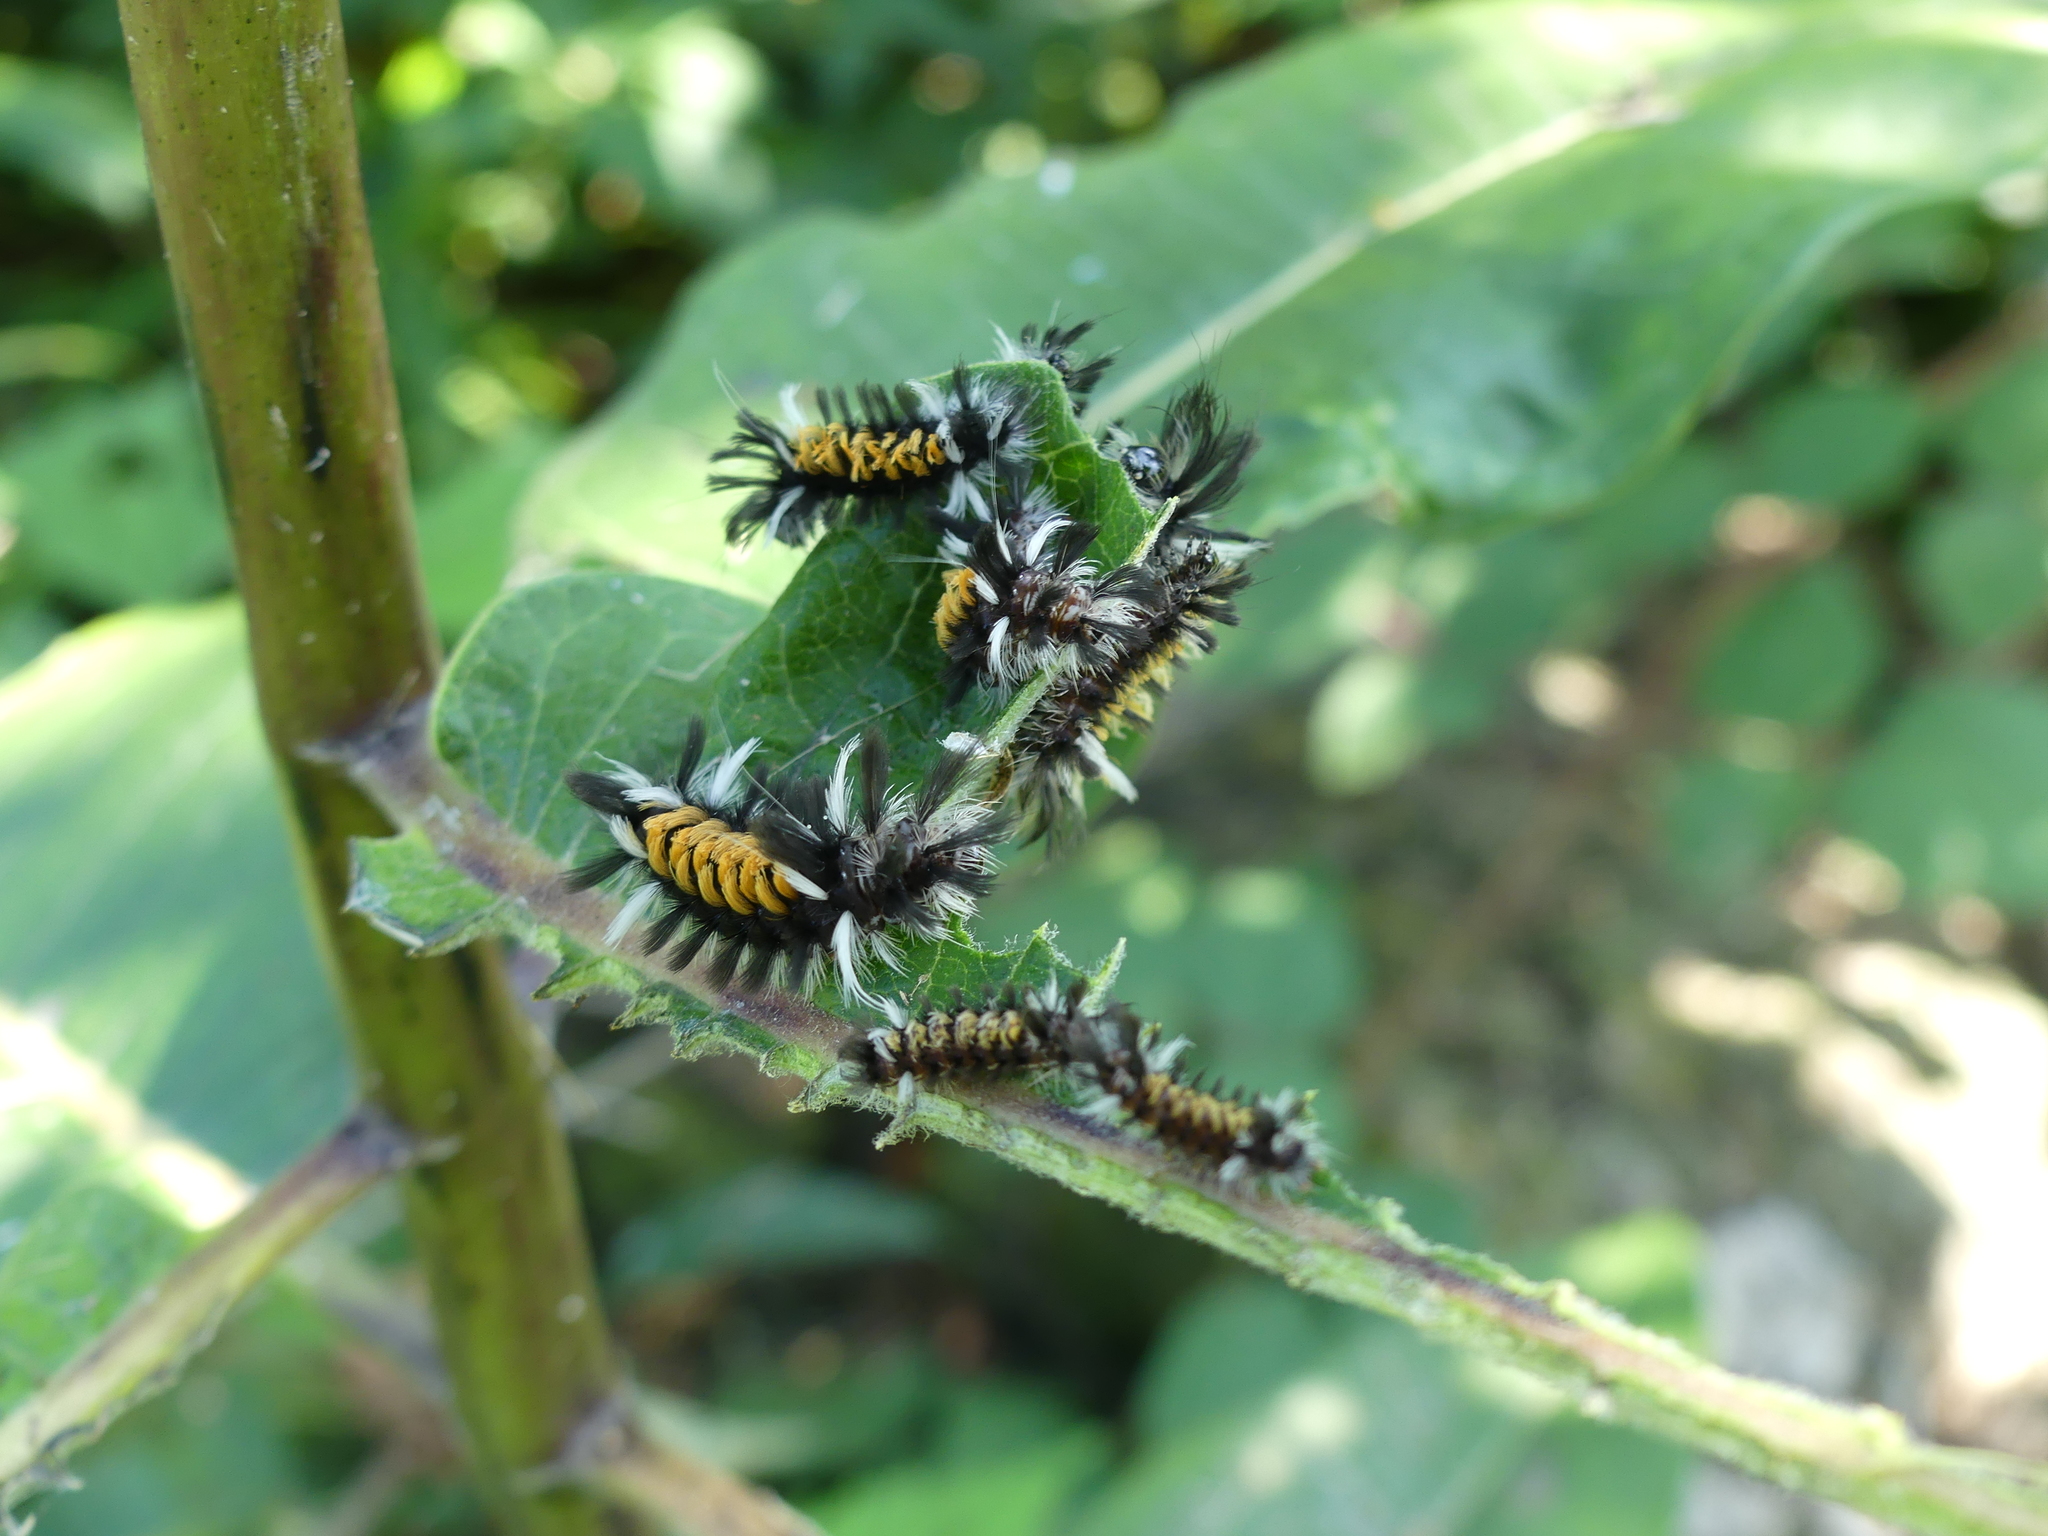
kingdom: Animalia
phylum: Arthropoda
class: Insecta
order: Lepidoptera
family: Erebidae
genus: Euchaetes
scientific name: Euchaetes egle
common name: Milkweed tussock moth
